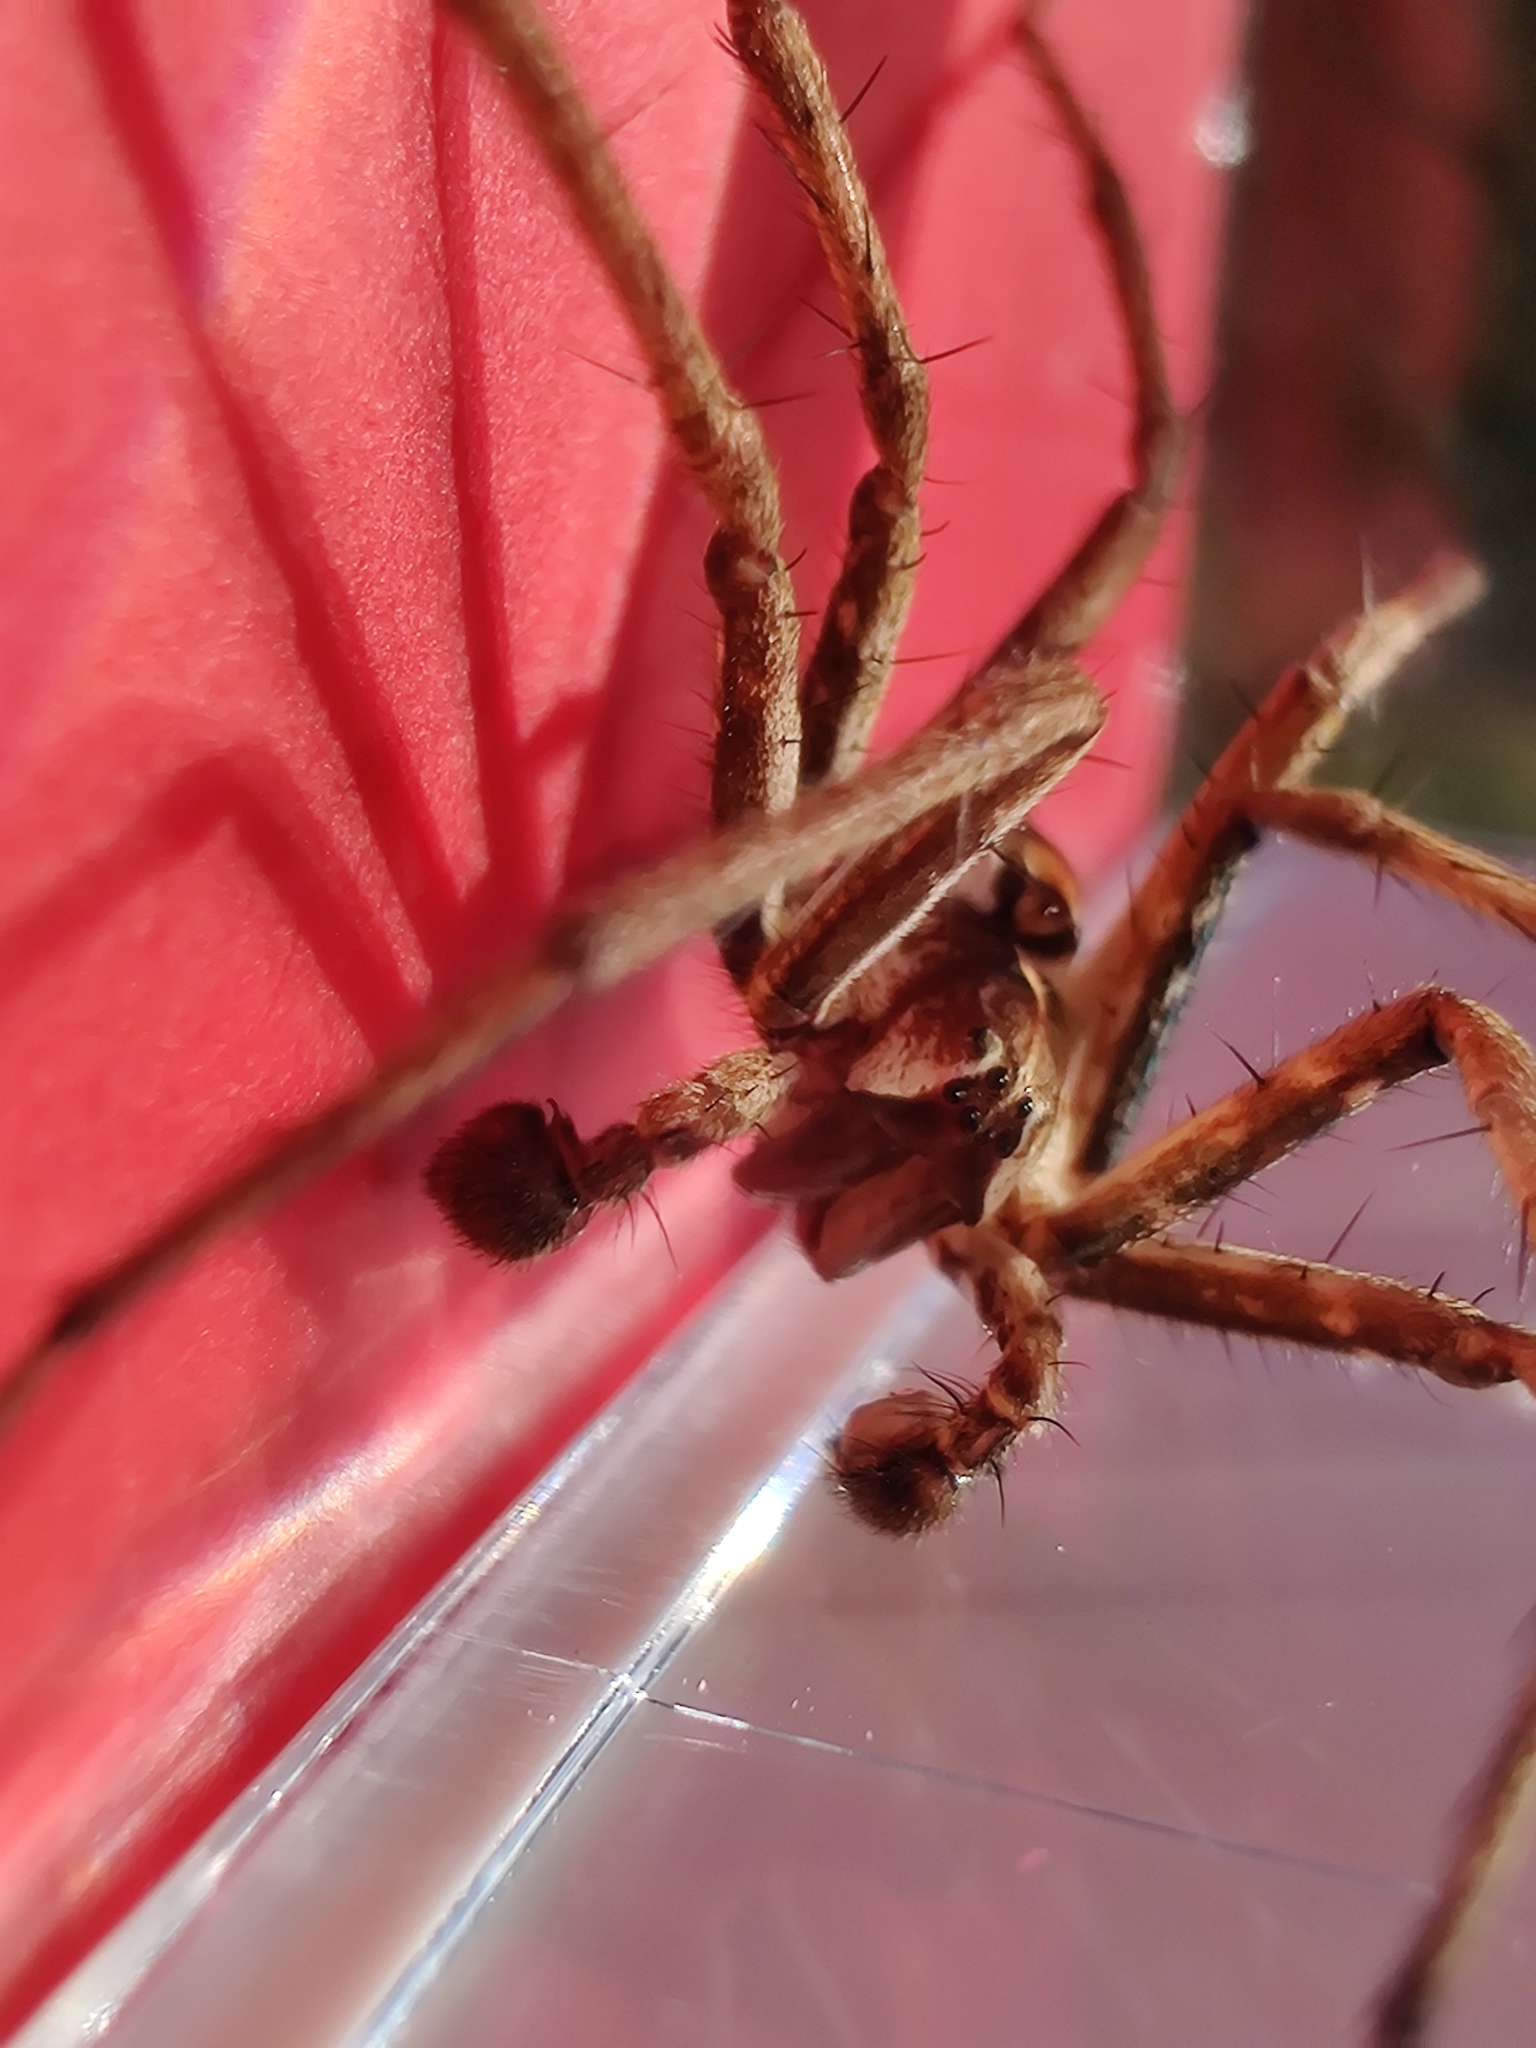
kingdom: Animalia
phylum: Arthropoda
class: Arachnida
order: Araneae
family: Pisauridae
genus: Pisaura
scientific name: Pisaura mirabilis
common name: Tent spider
